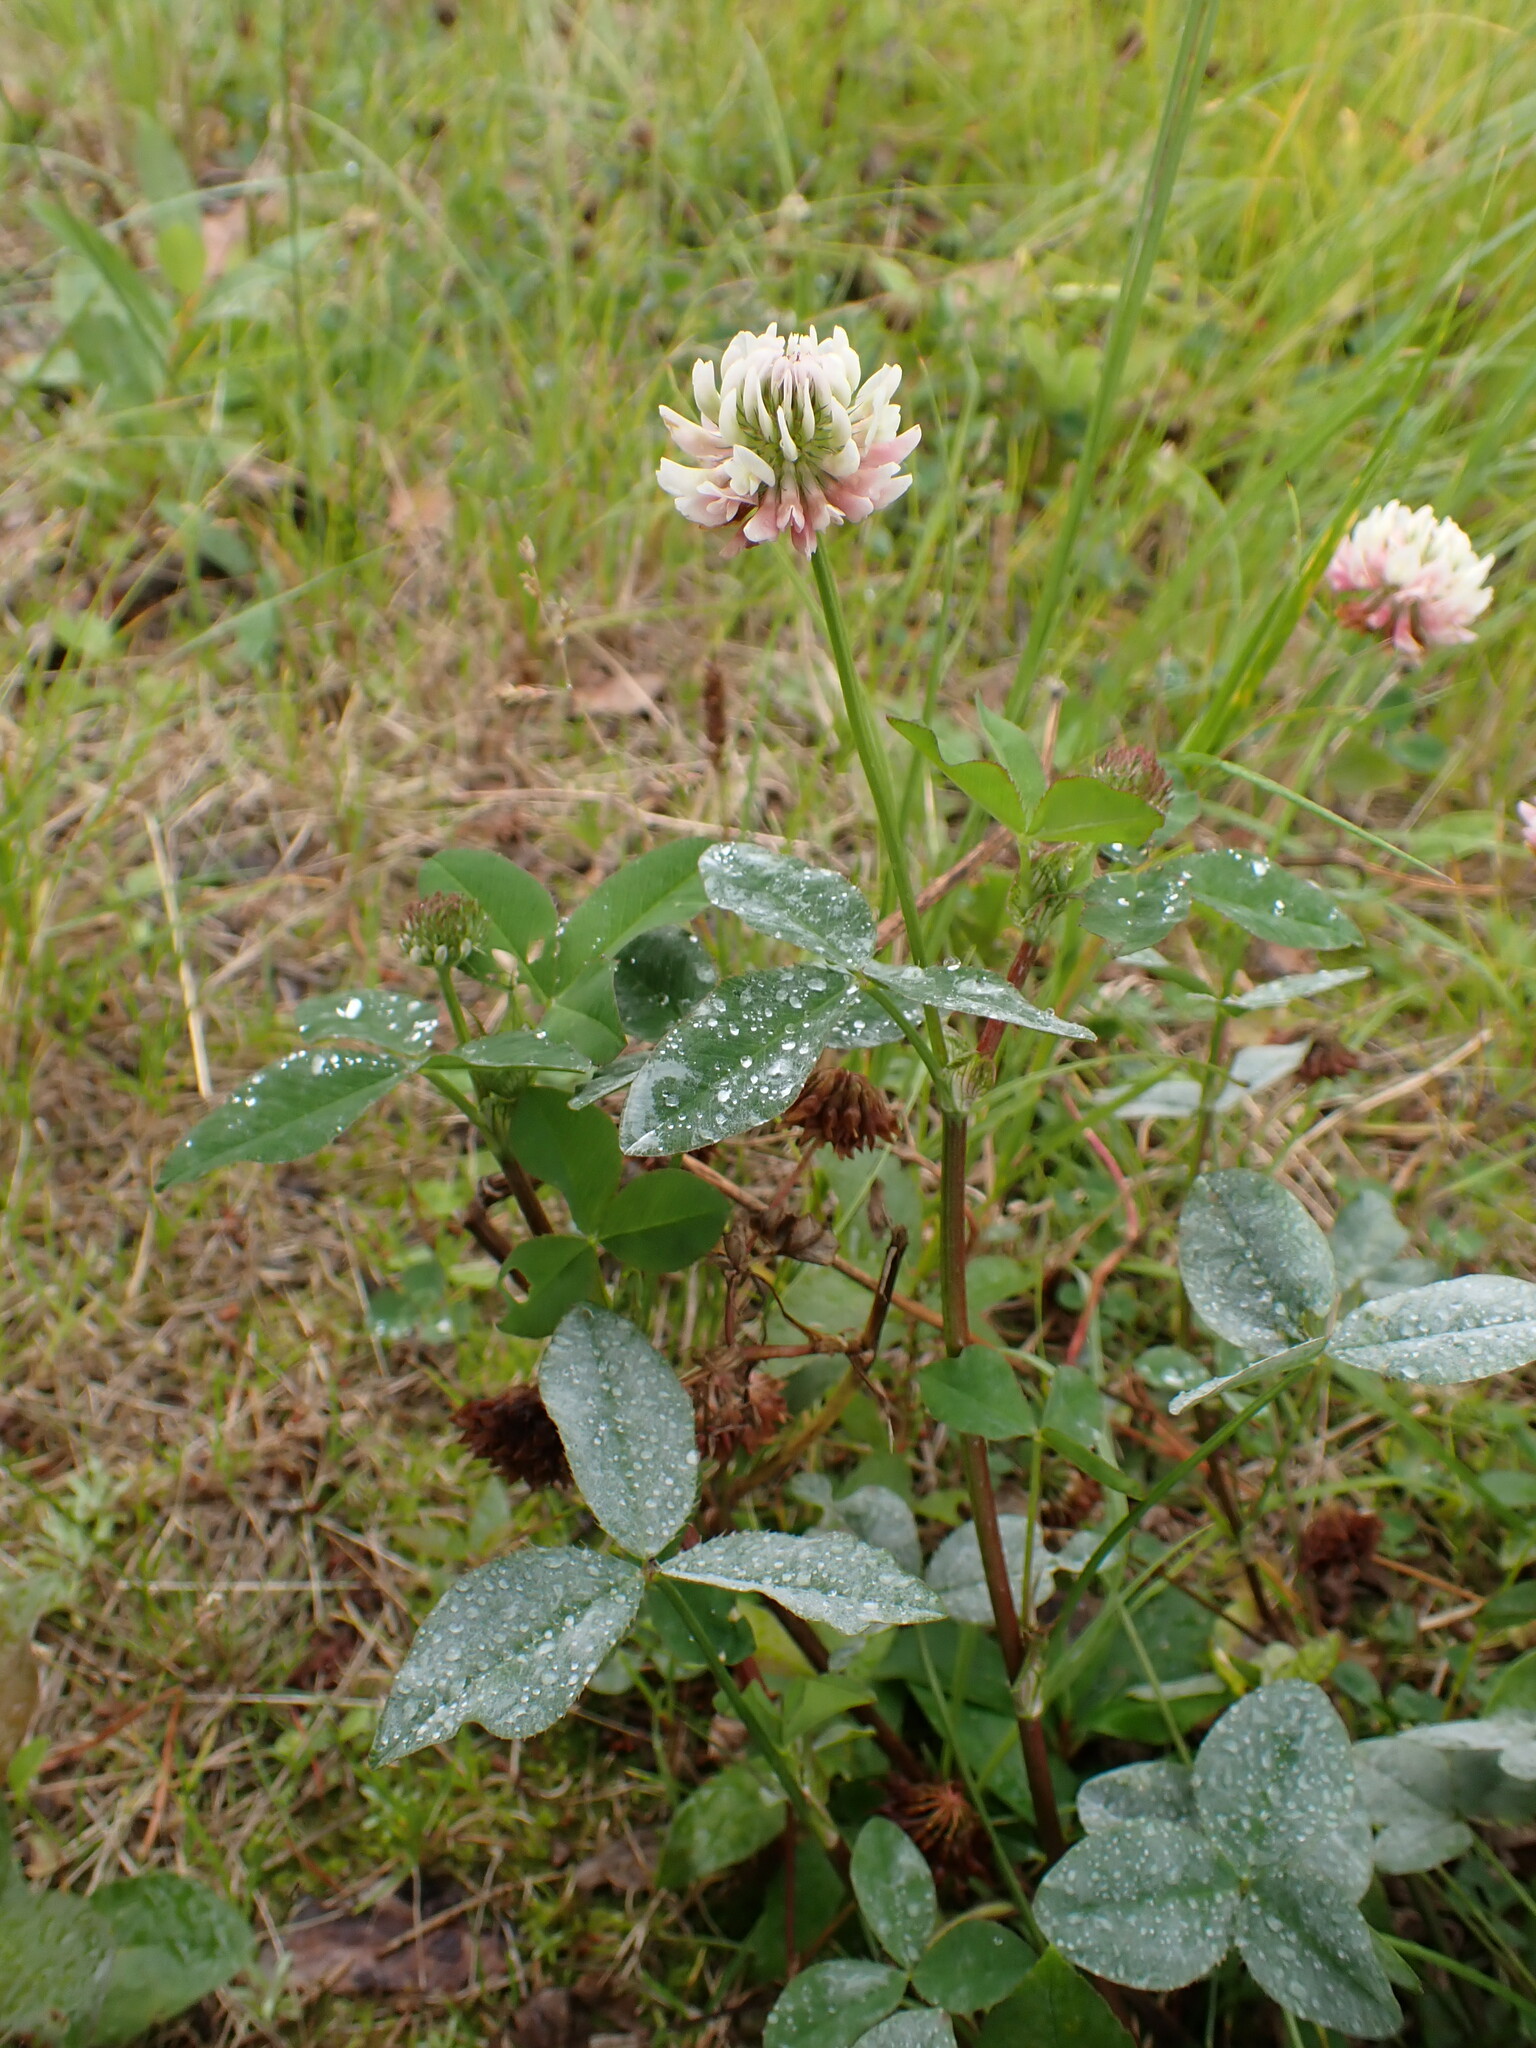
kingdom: Plantae
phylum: Tracheophyta
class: Magnoliopsida
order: Fabales
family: Fabaceae
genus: Trifolium
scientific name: Trifolium hybridum
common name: Alsike clover
